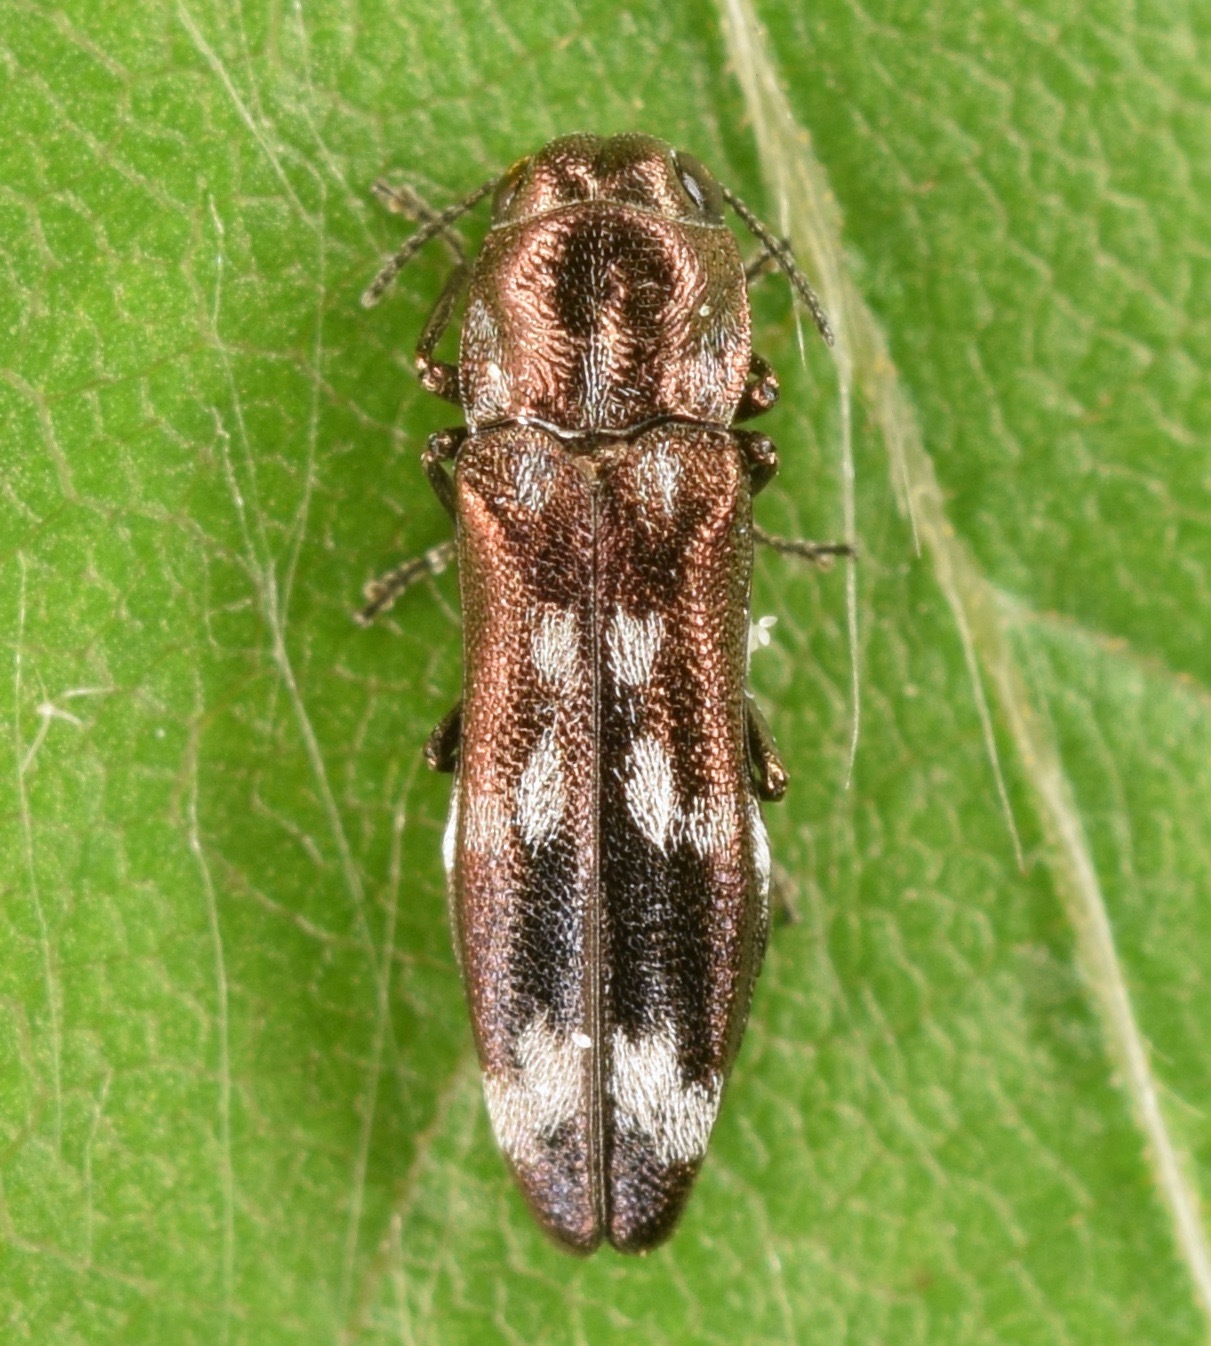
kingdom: Animalia
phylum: Arthropoda
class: Insecta
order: Coleoptera
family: Buprestidae
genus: Agrilus
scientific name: Agrilus subcinctus
